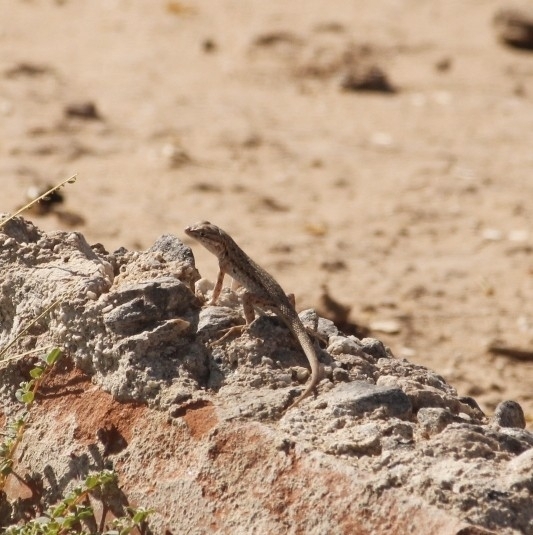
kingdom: Animalia
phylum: Chordata
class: Squamata
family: Phrynosomatidae
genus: Uta
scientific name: Uta stansburiana
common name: Side-blotched lizard
